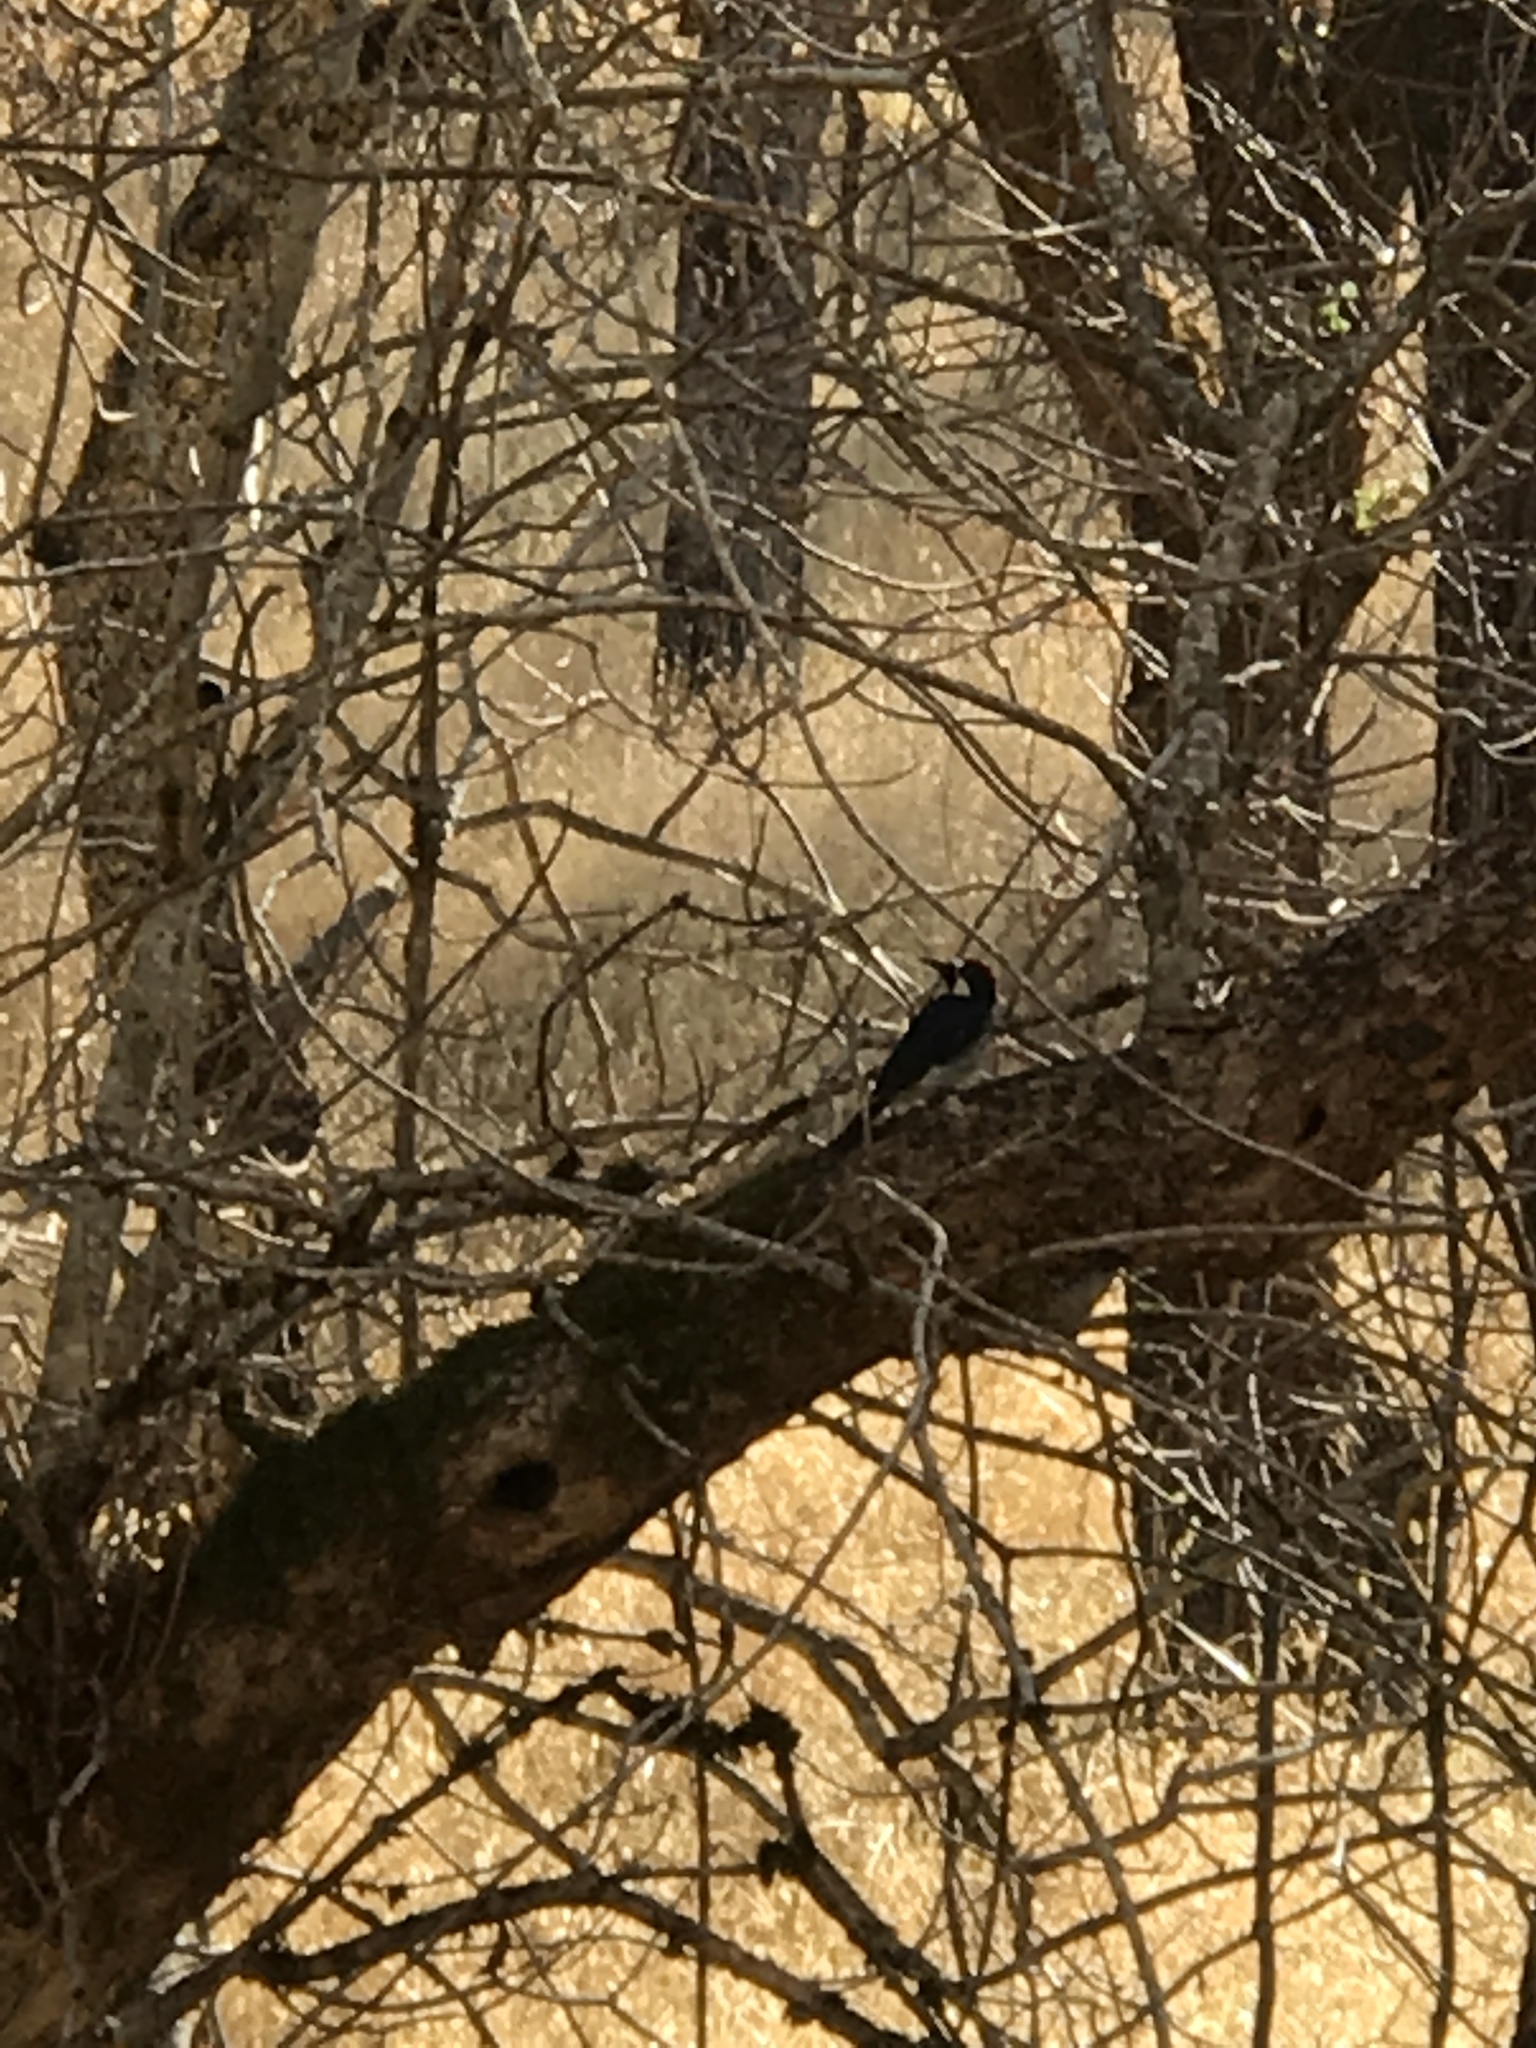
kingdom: Animalia
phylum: Chordata
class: Aves
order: Piciformes
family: Picidae
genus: Melanerpes
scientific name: Melanerpes formicivorus
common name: Acorn woodpecker
